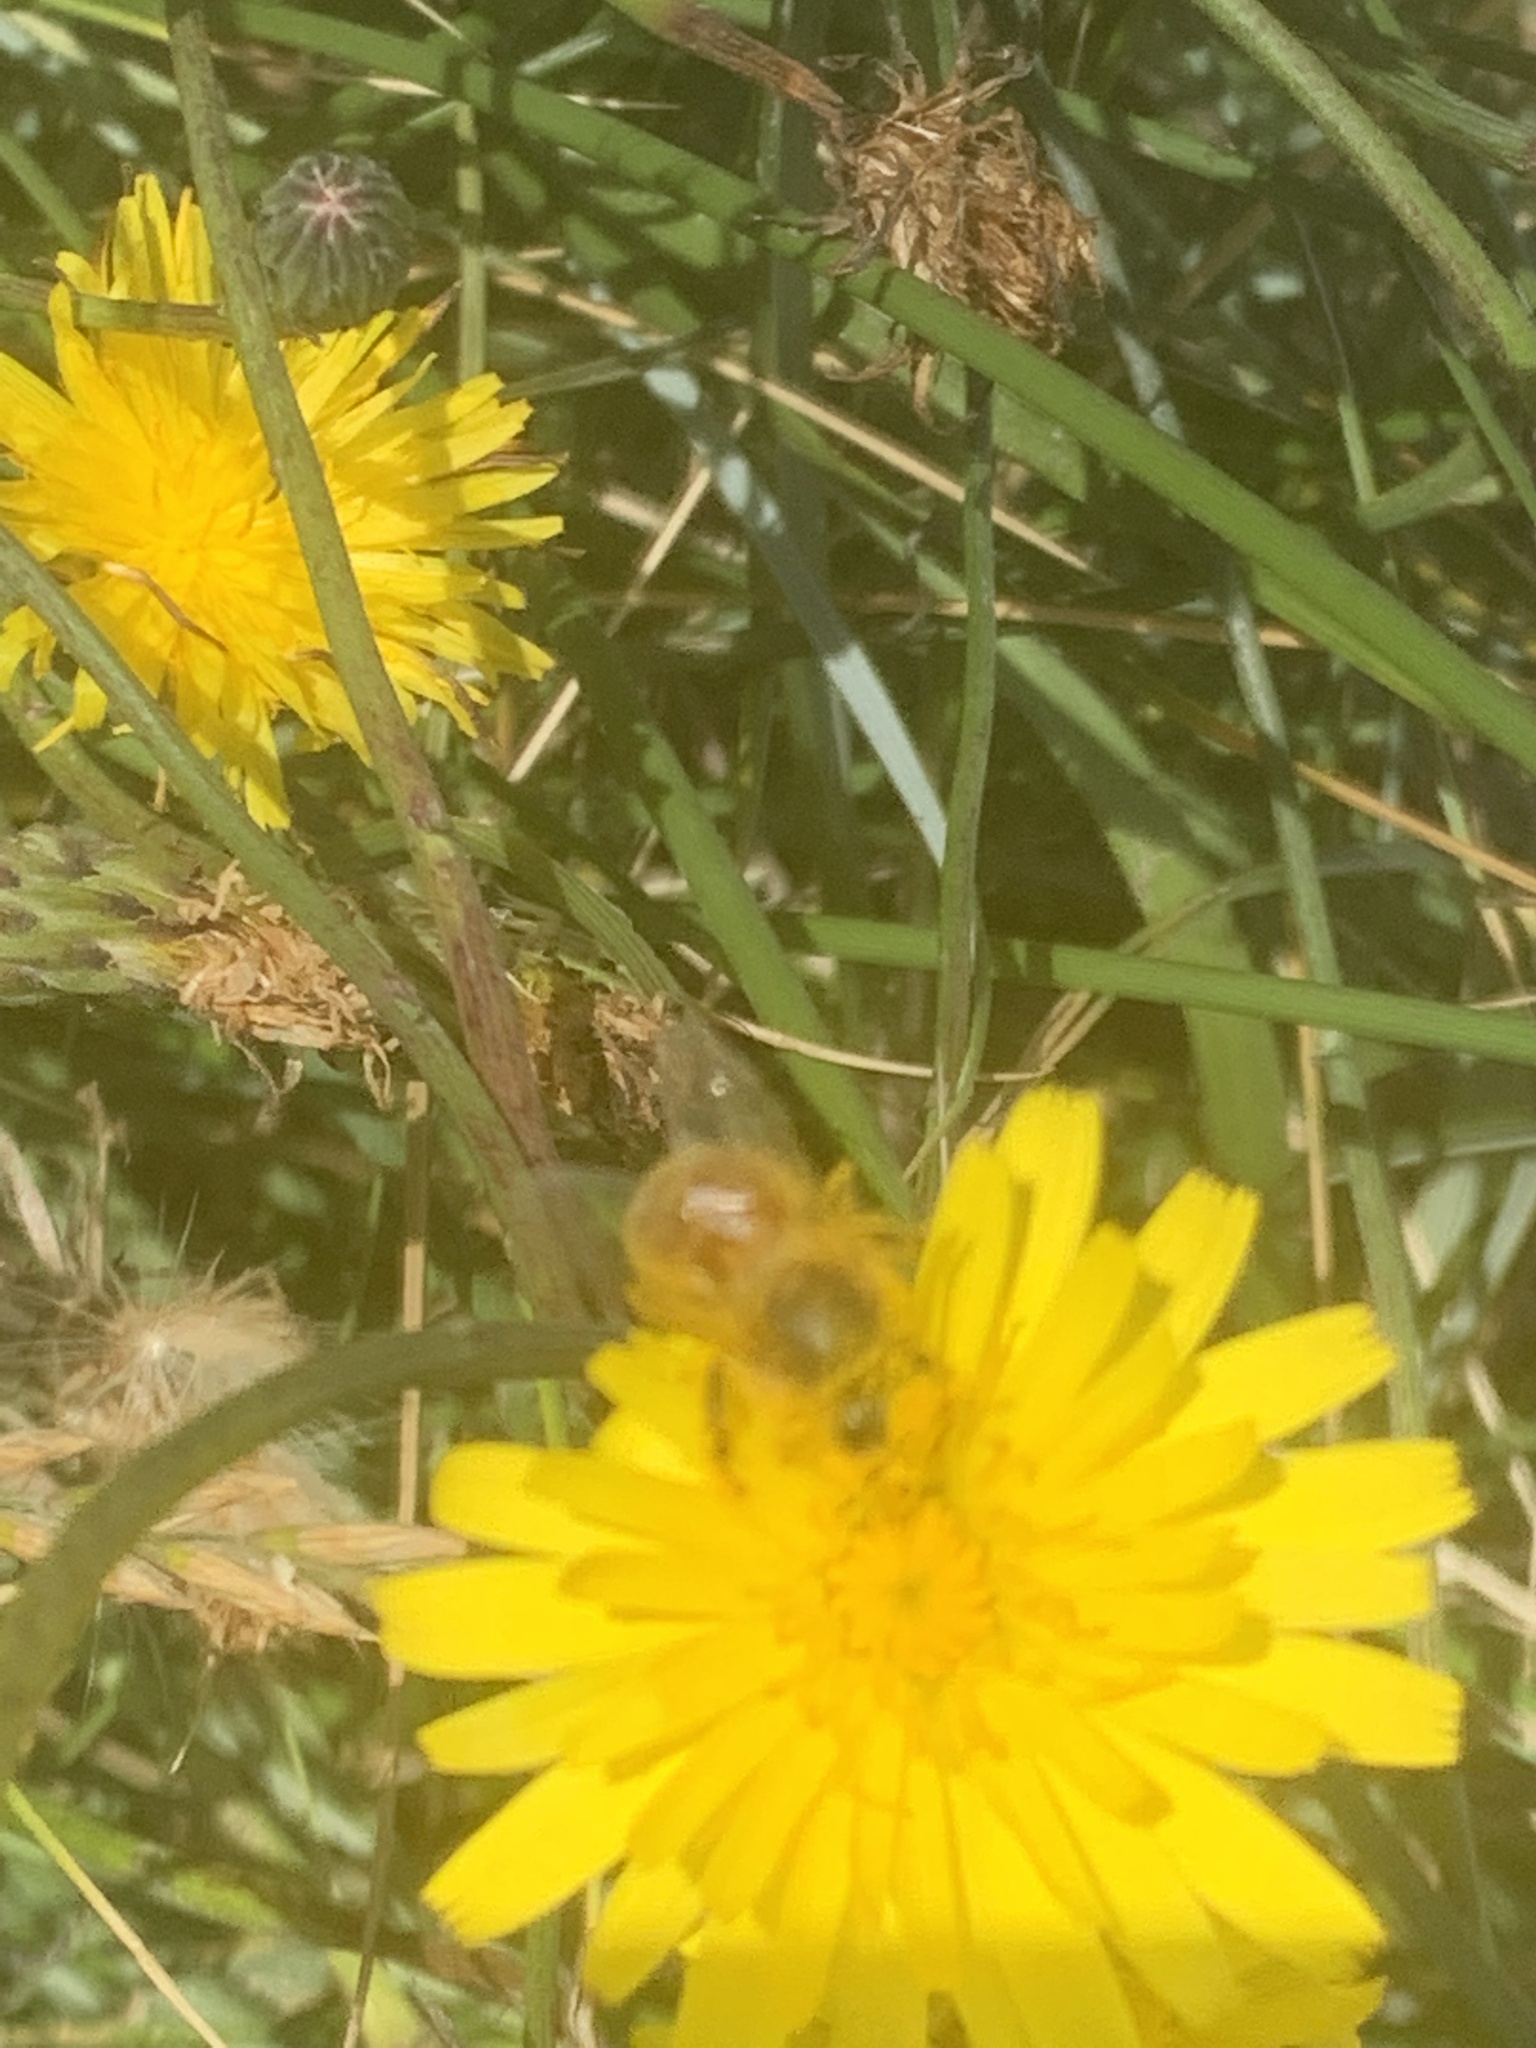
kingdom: Animalia
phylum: Arthropoda
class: Insecta
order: Hymenoptera
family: Apidae
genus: Apis
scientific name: Apis mellifera
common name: Honey bee
